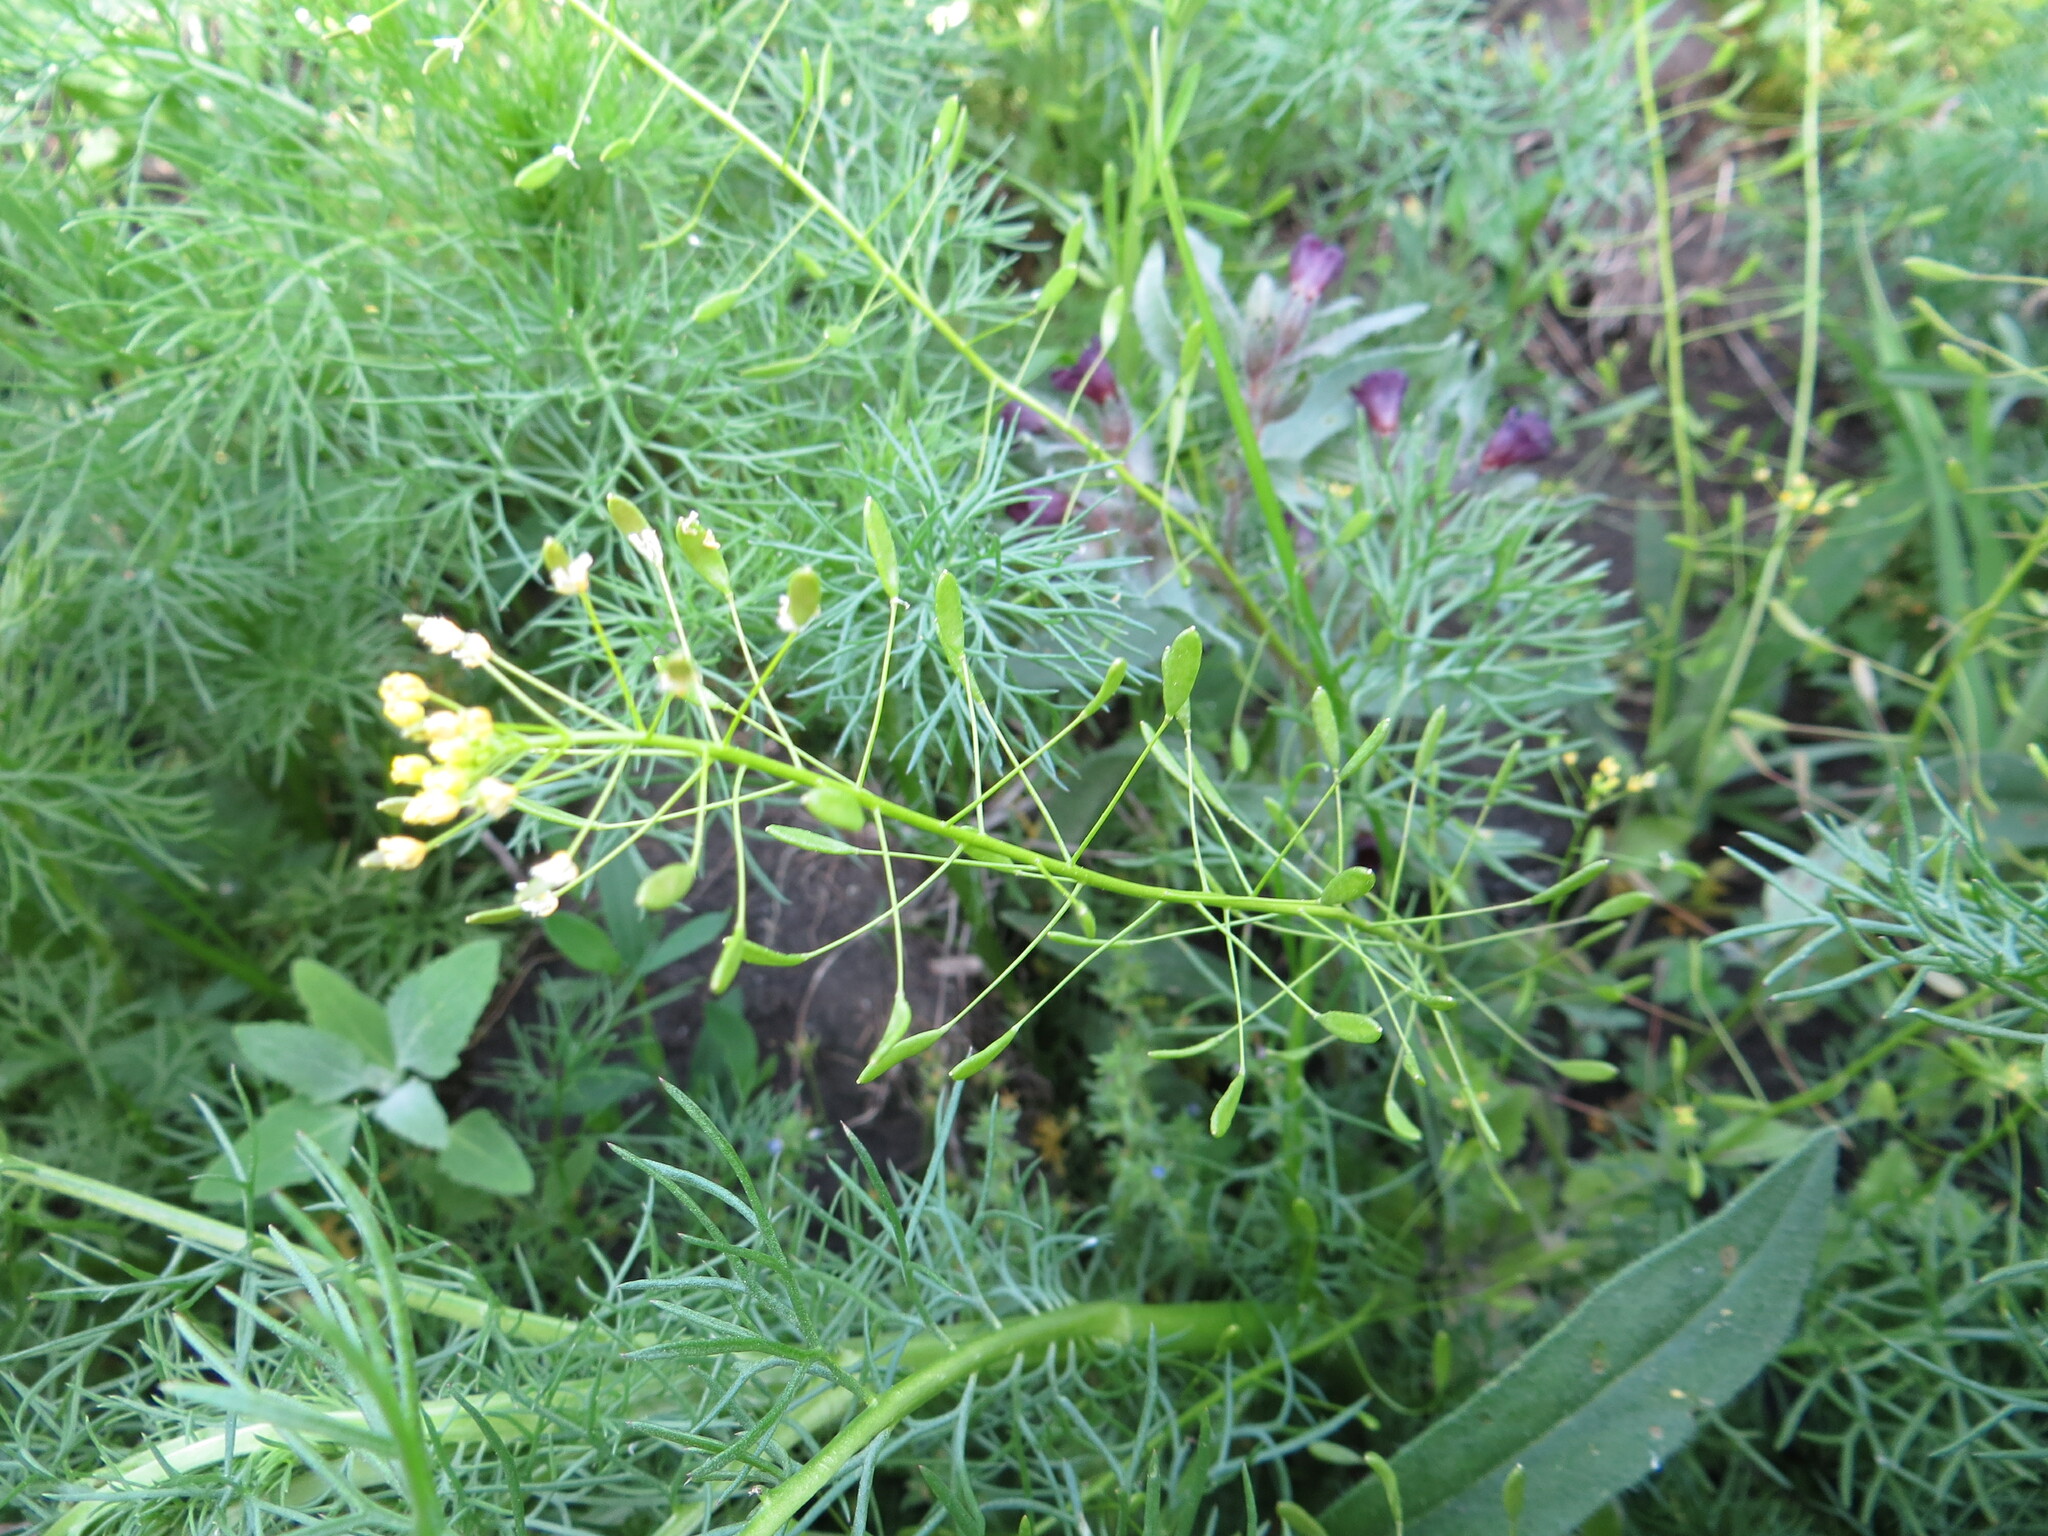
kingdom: Plantae
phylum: Tracheophyta
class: Magnoliopsida
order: Brassicales
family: Brassicaceae
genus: Draba
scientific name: Draba nemorosa
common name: Wood whitlow-grass
